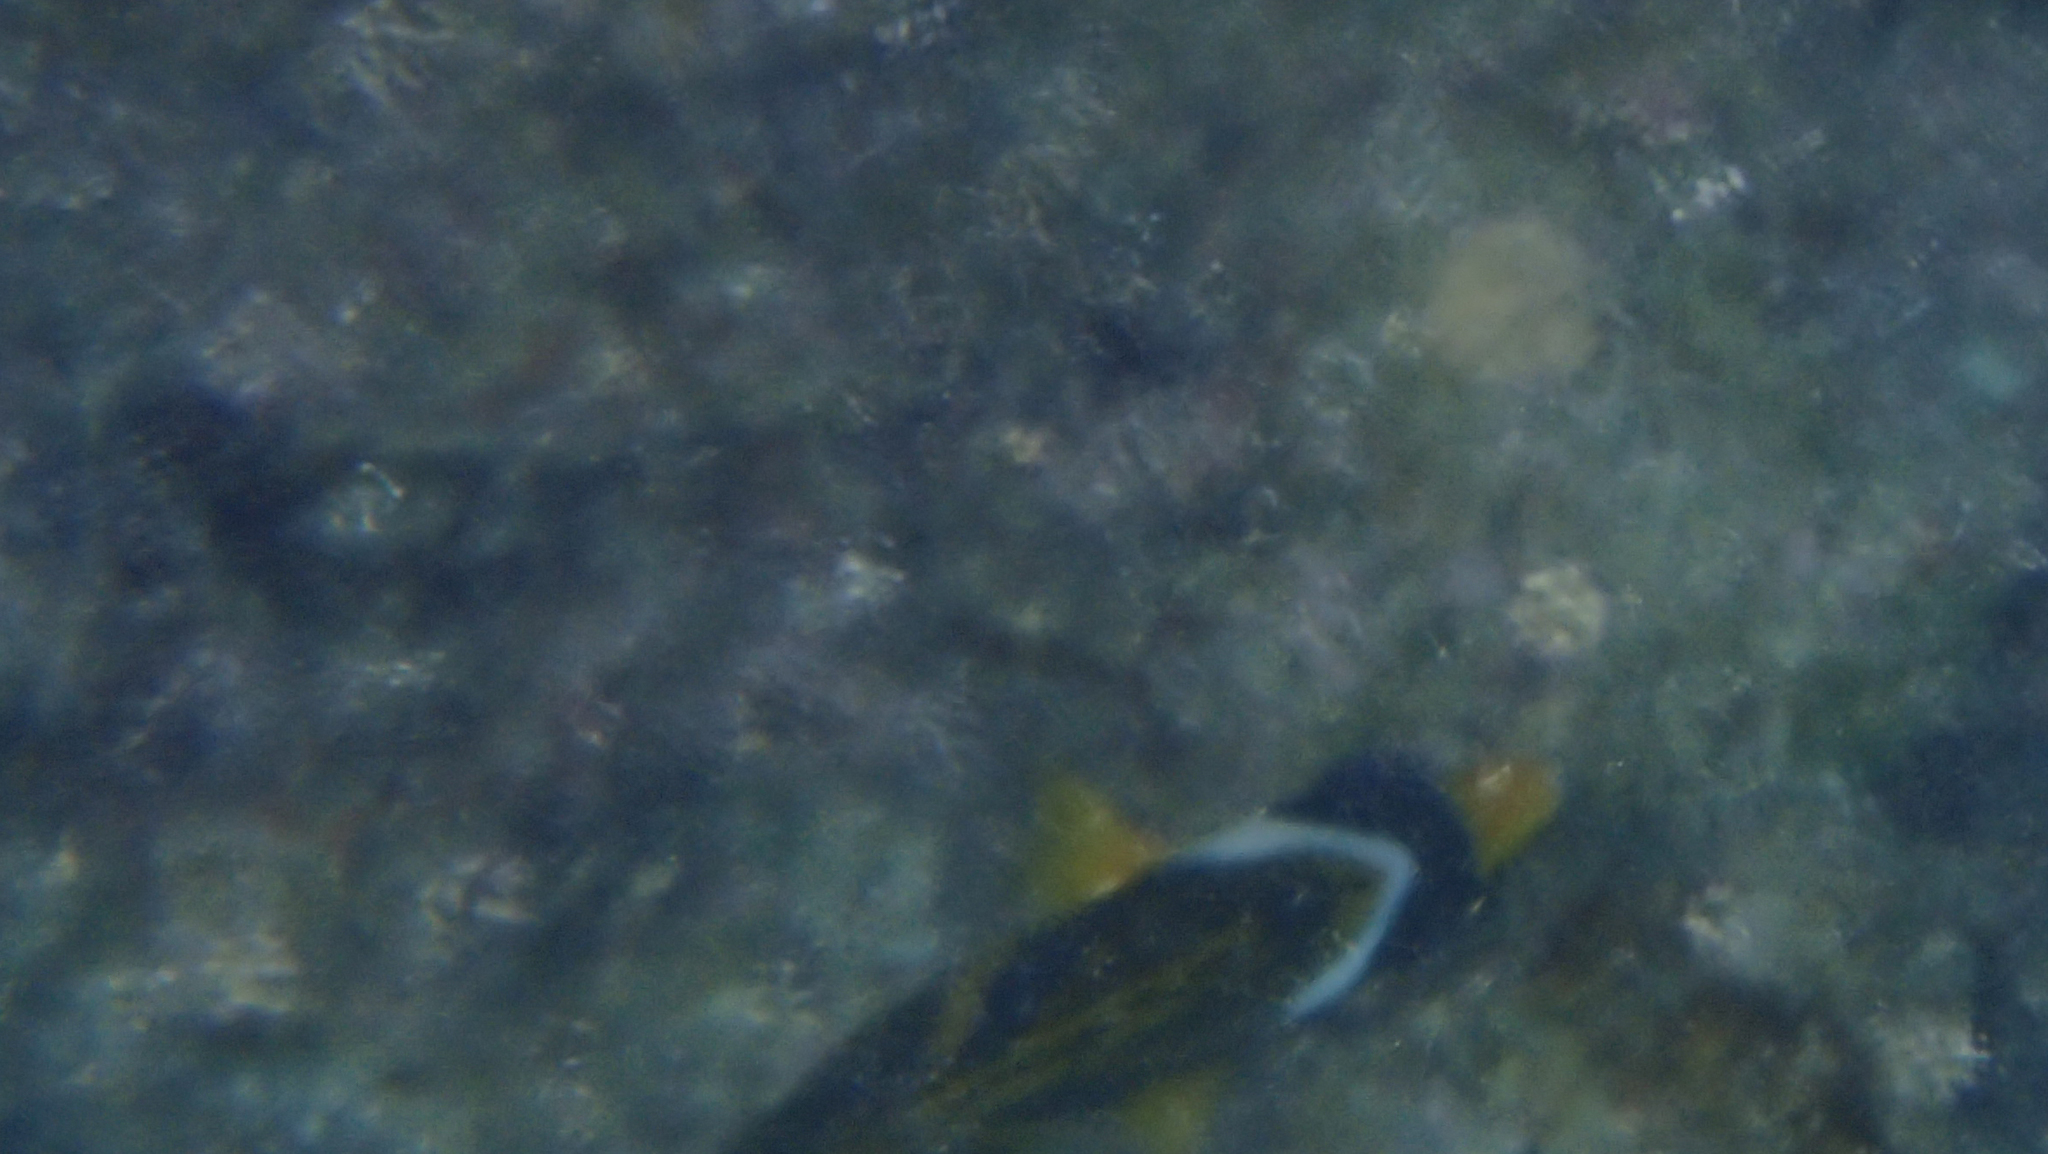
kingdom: Animalia
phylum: Chordata
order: Perciformes
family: Chaetodontidae
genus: Chaetodon
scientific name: Chaetodon lunula
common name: Raccoon butterflyfish
